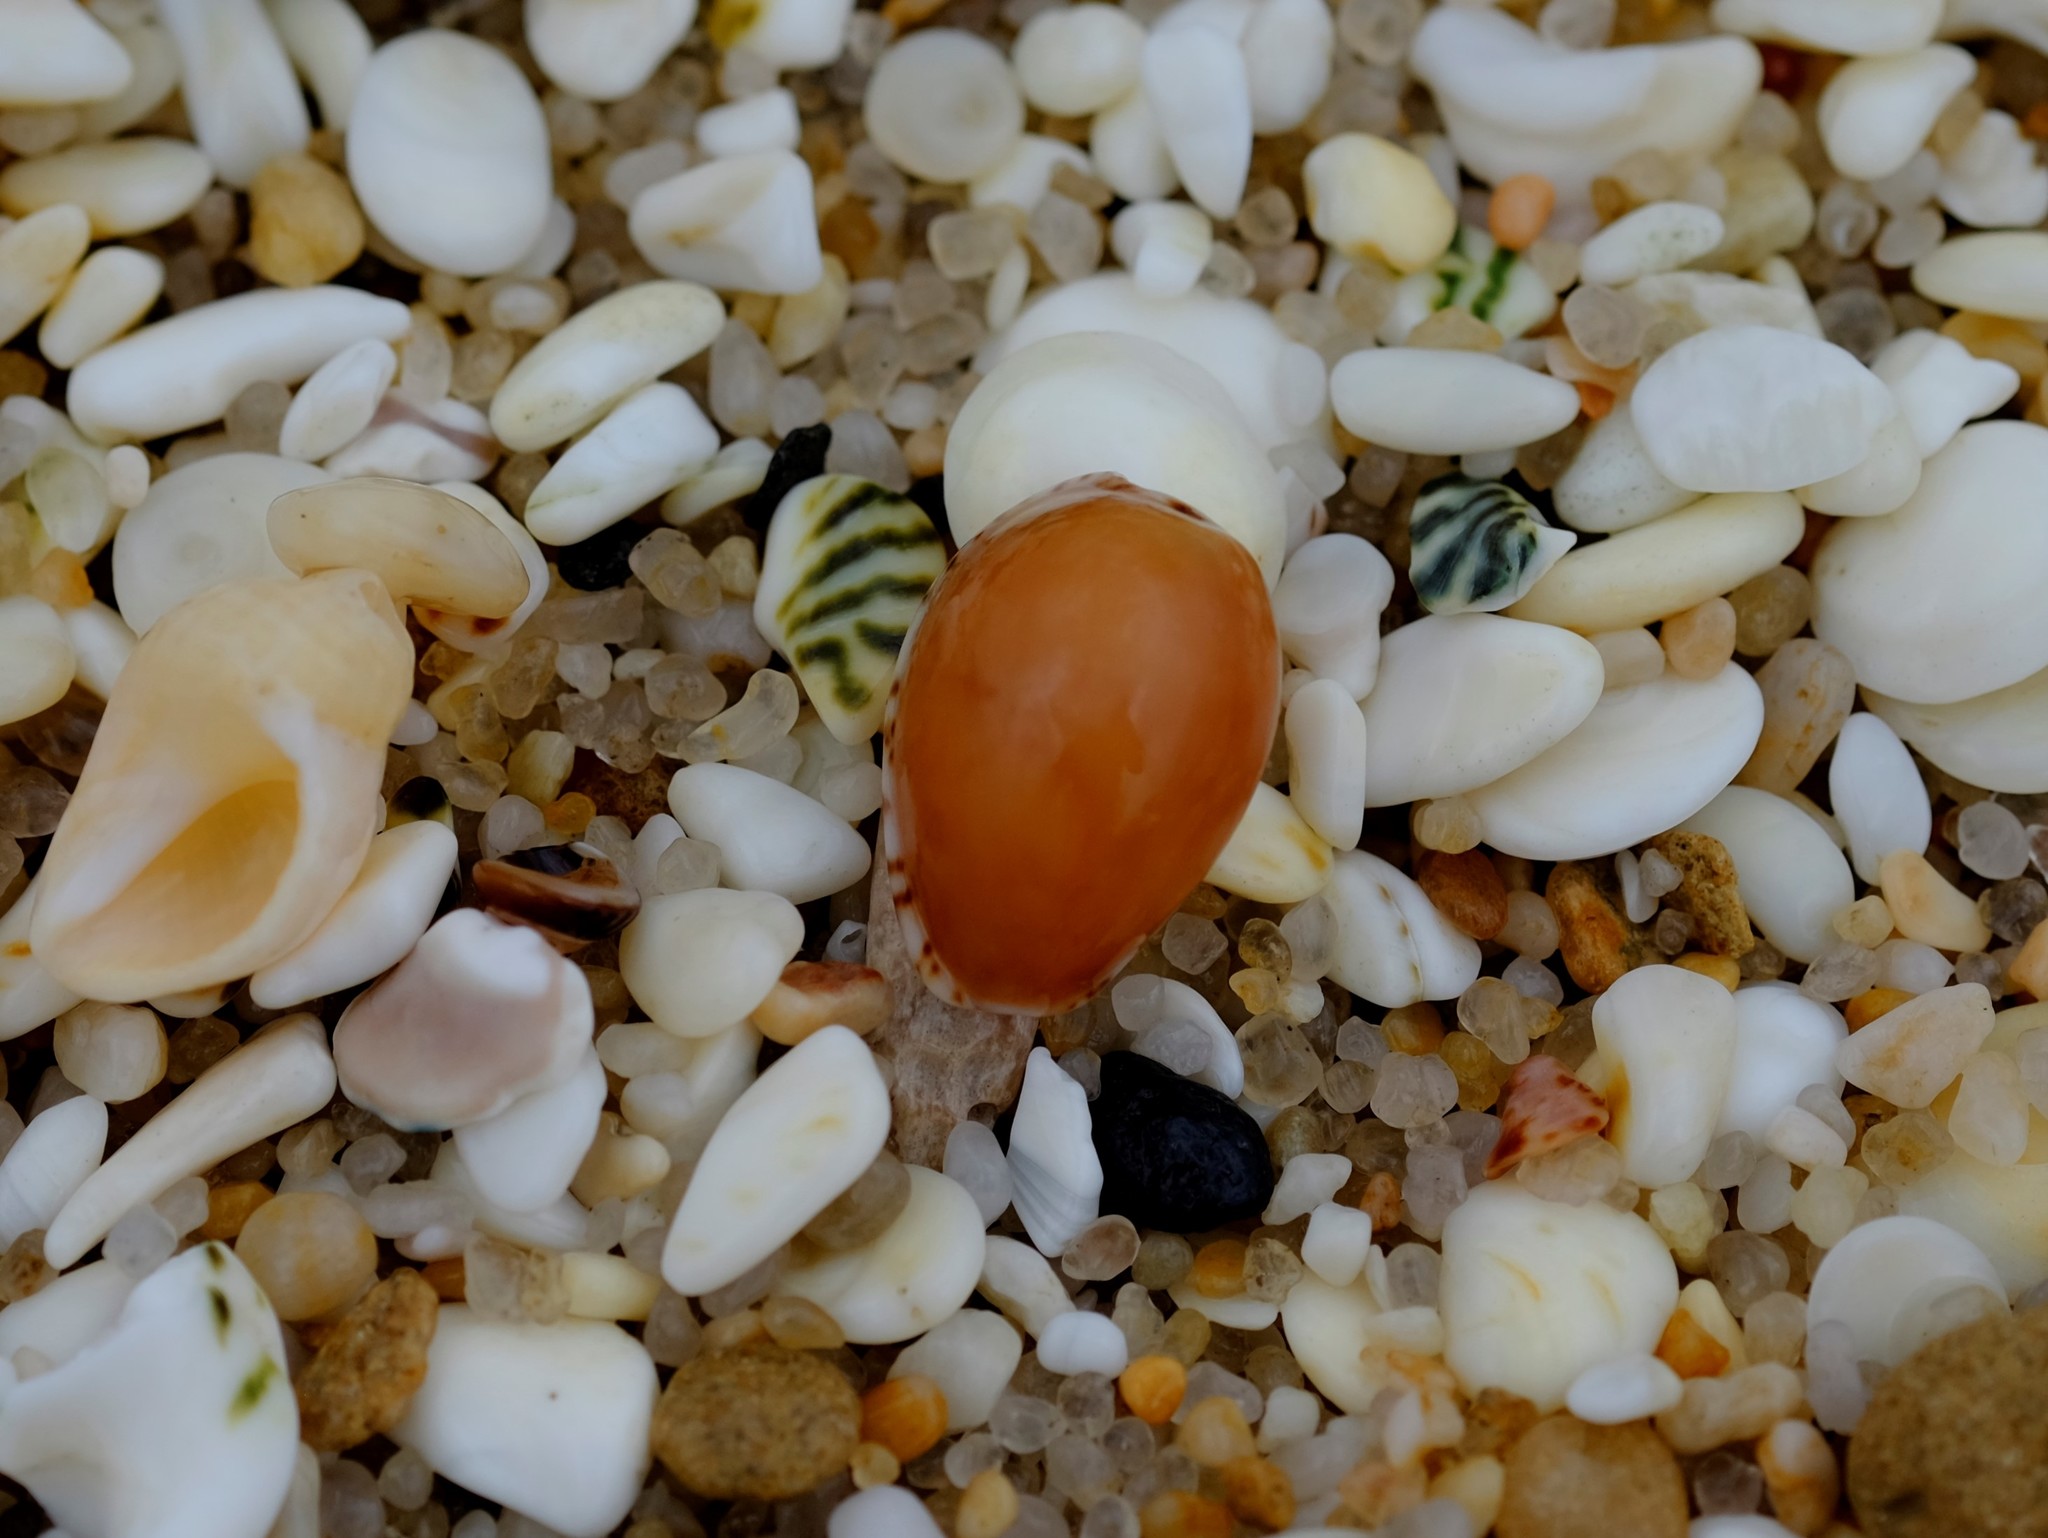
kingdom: Animalia
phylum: Mollusca
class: Gastropoda
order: Littorinimorpha
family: Cypraeidae
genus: Notocypraea
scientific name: Notocypraea angustata
